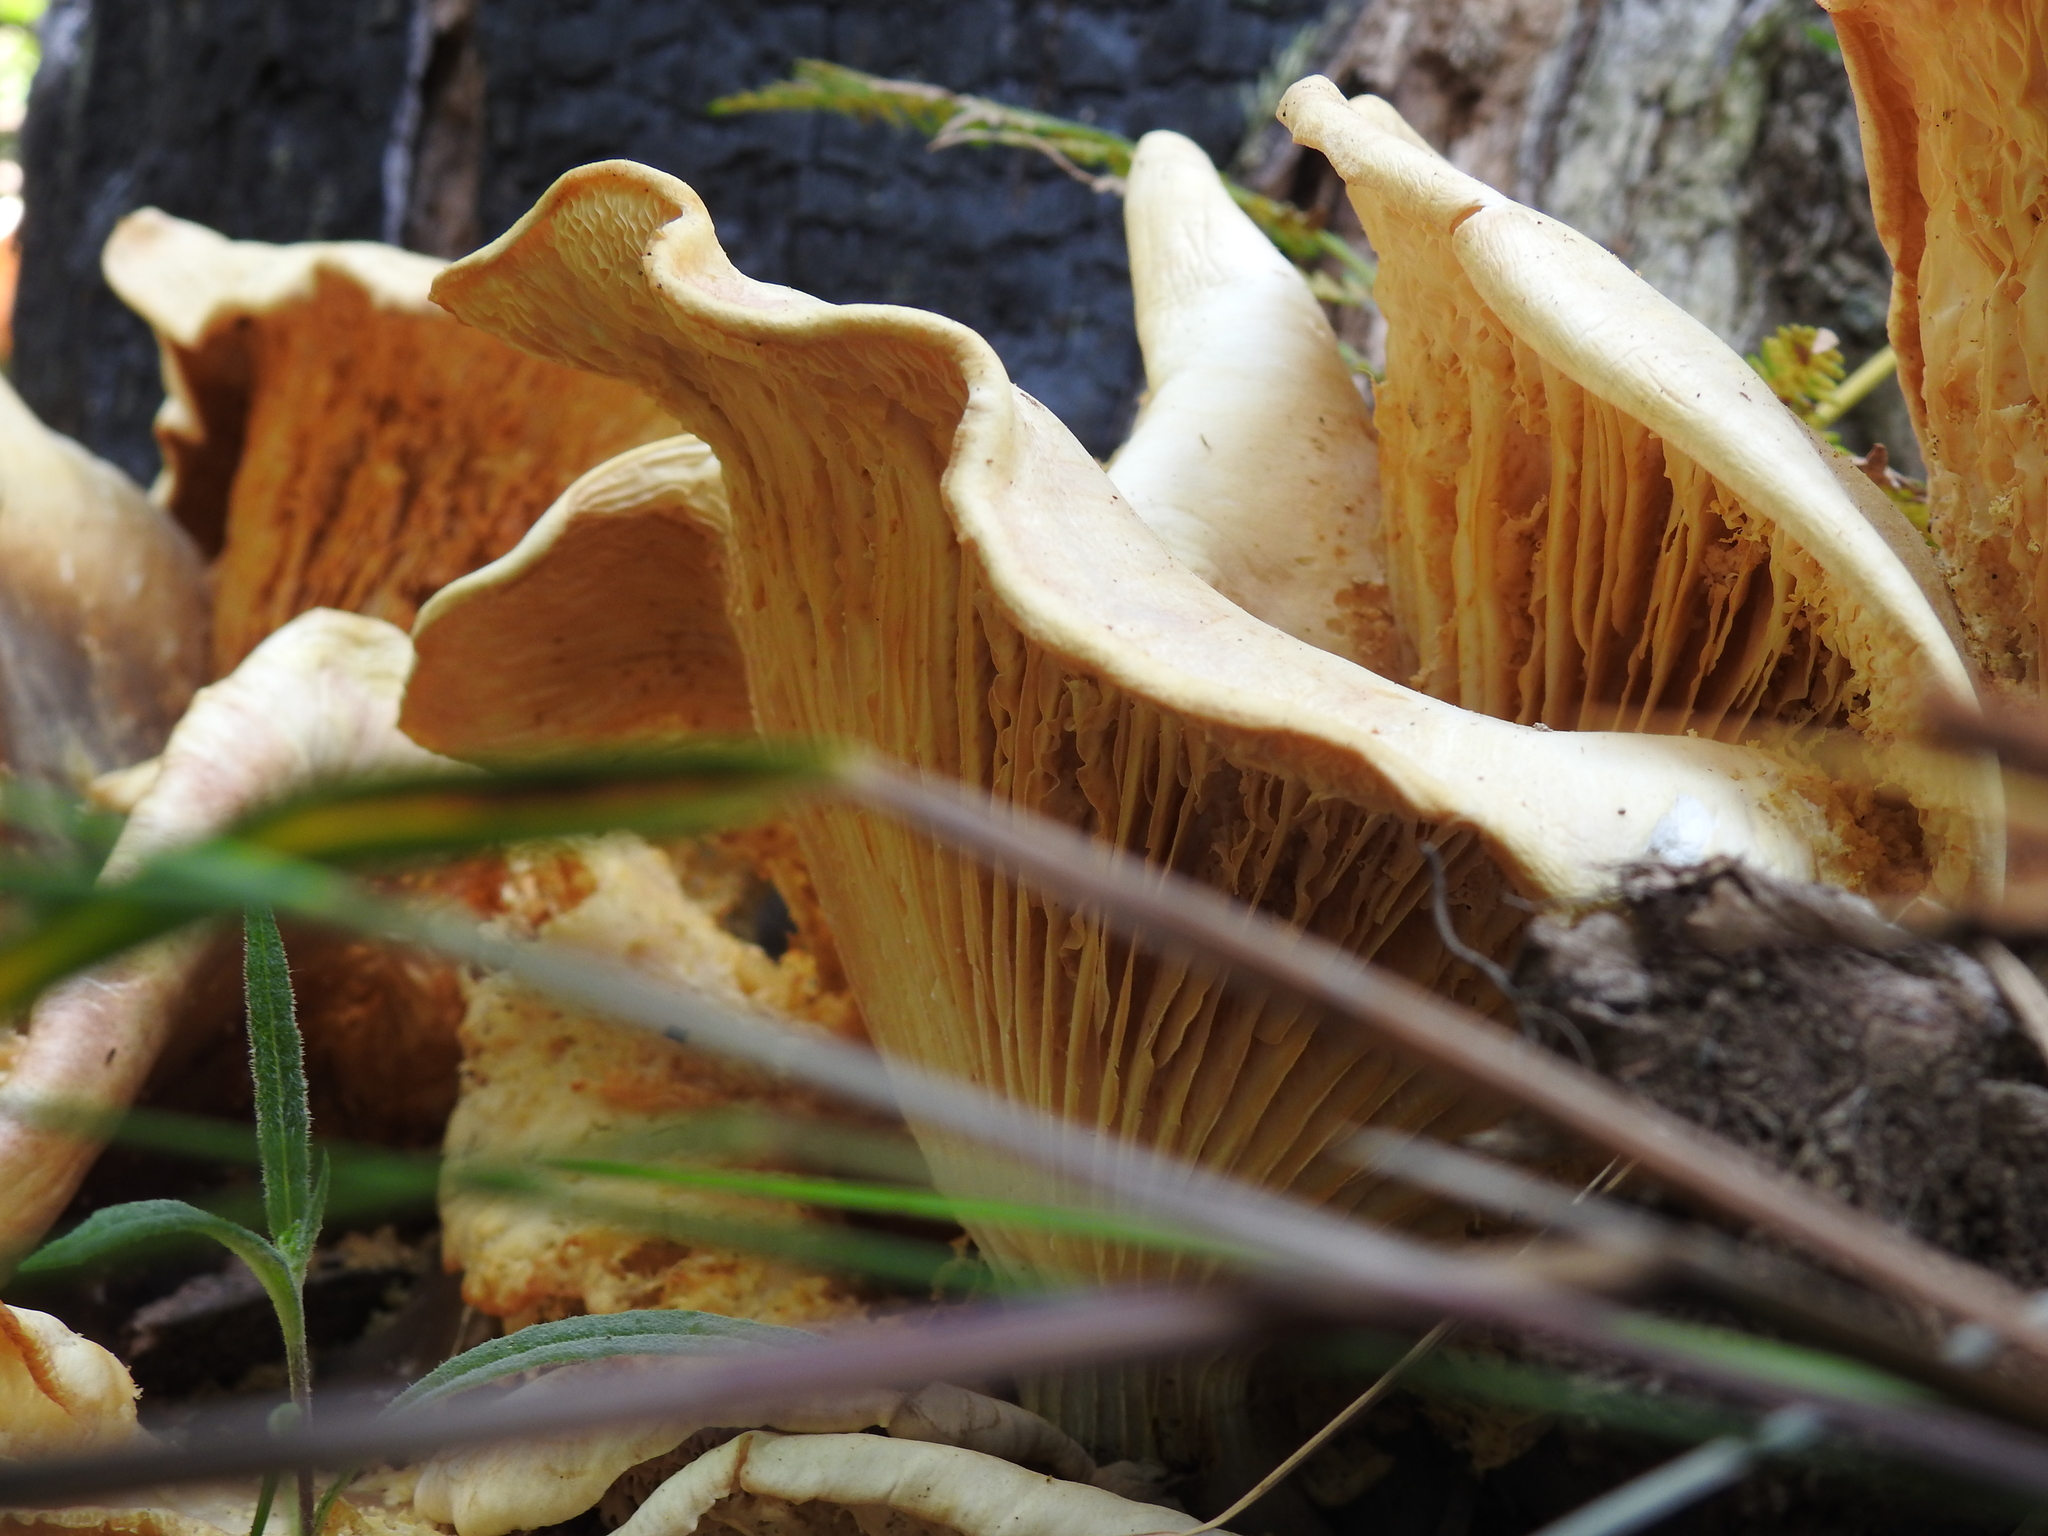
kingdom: Fungi
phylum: Basidiomycota
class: Agaricomycetes
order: Agaricales
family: Omphalotaceae
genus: Omphalotus
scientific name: Omphalotus nidiformis
